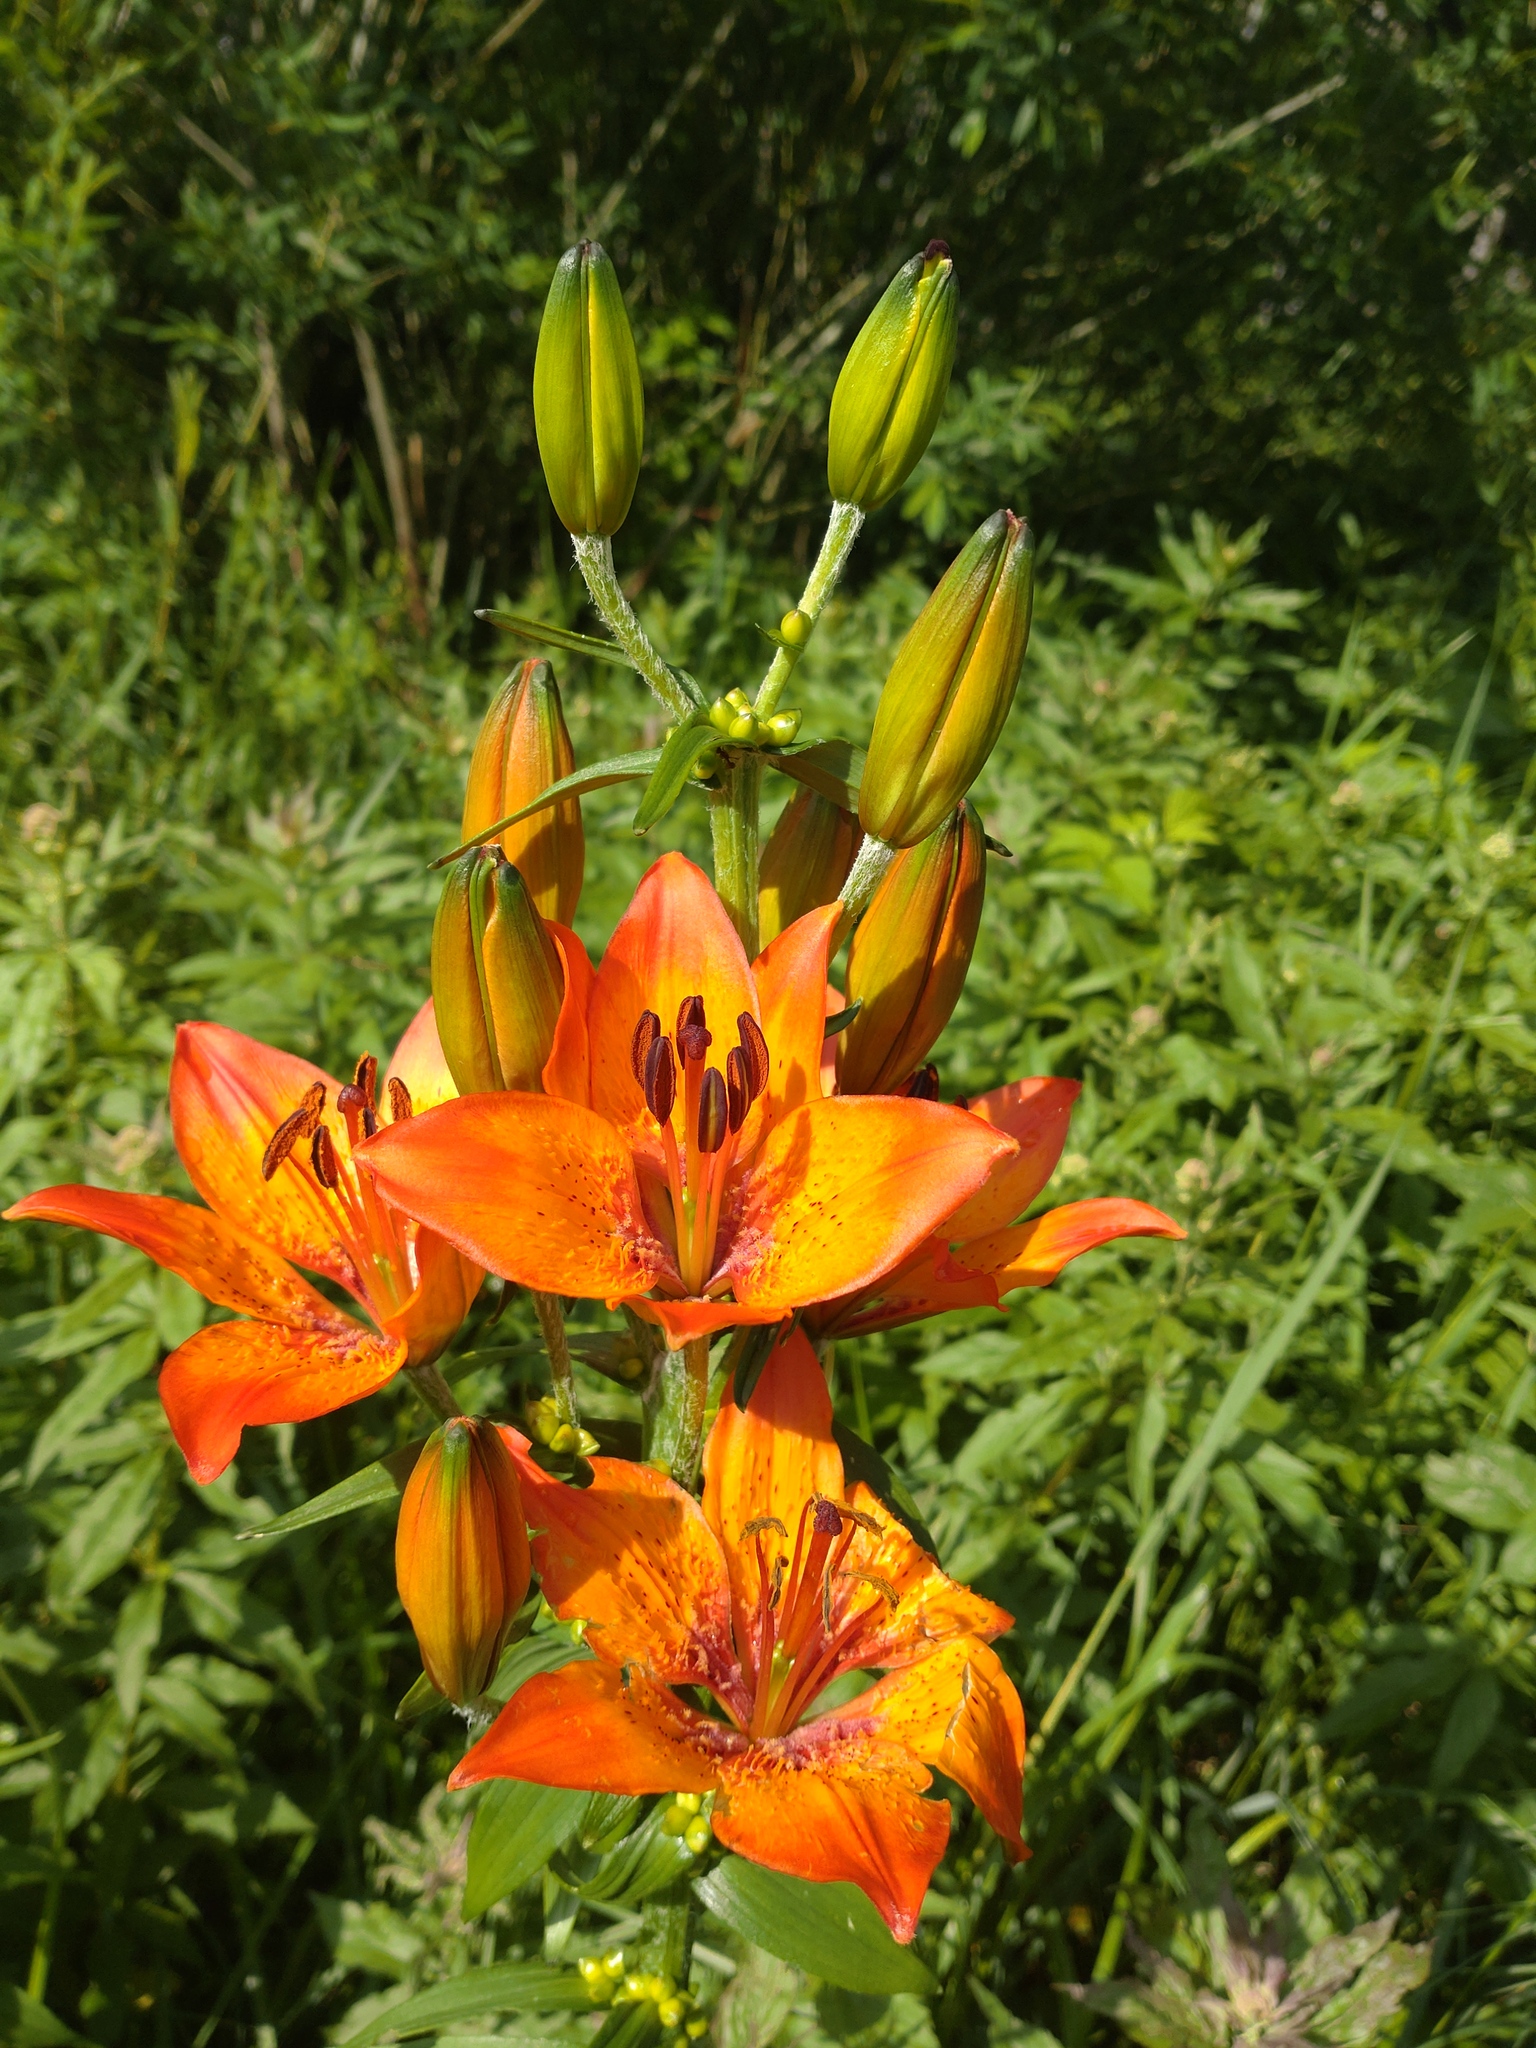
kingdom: Plantae
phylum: Tracheophyta
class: Liliopsida
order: Liliales
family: Liliaceae
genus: Lilium
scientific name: Lilium bulbiferum
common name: Orange lily
